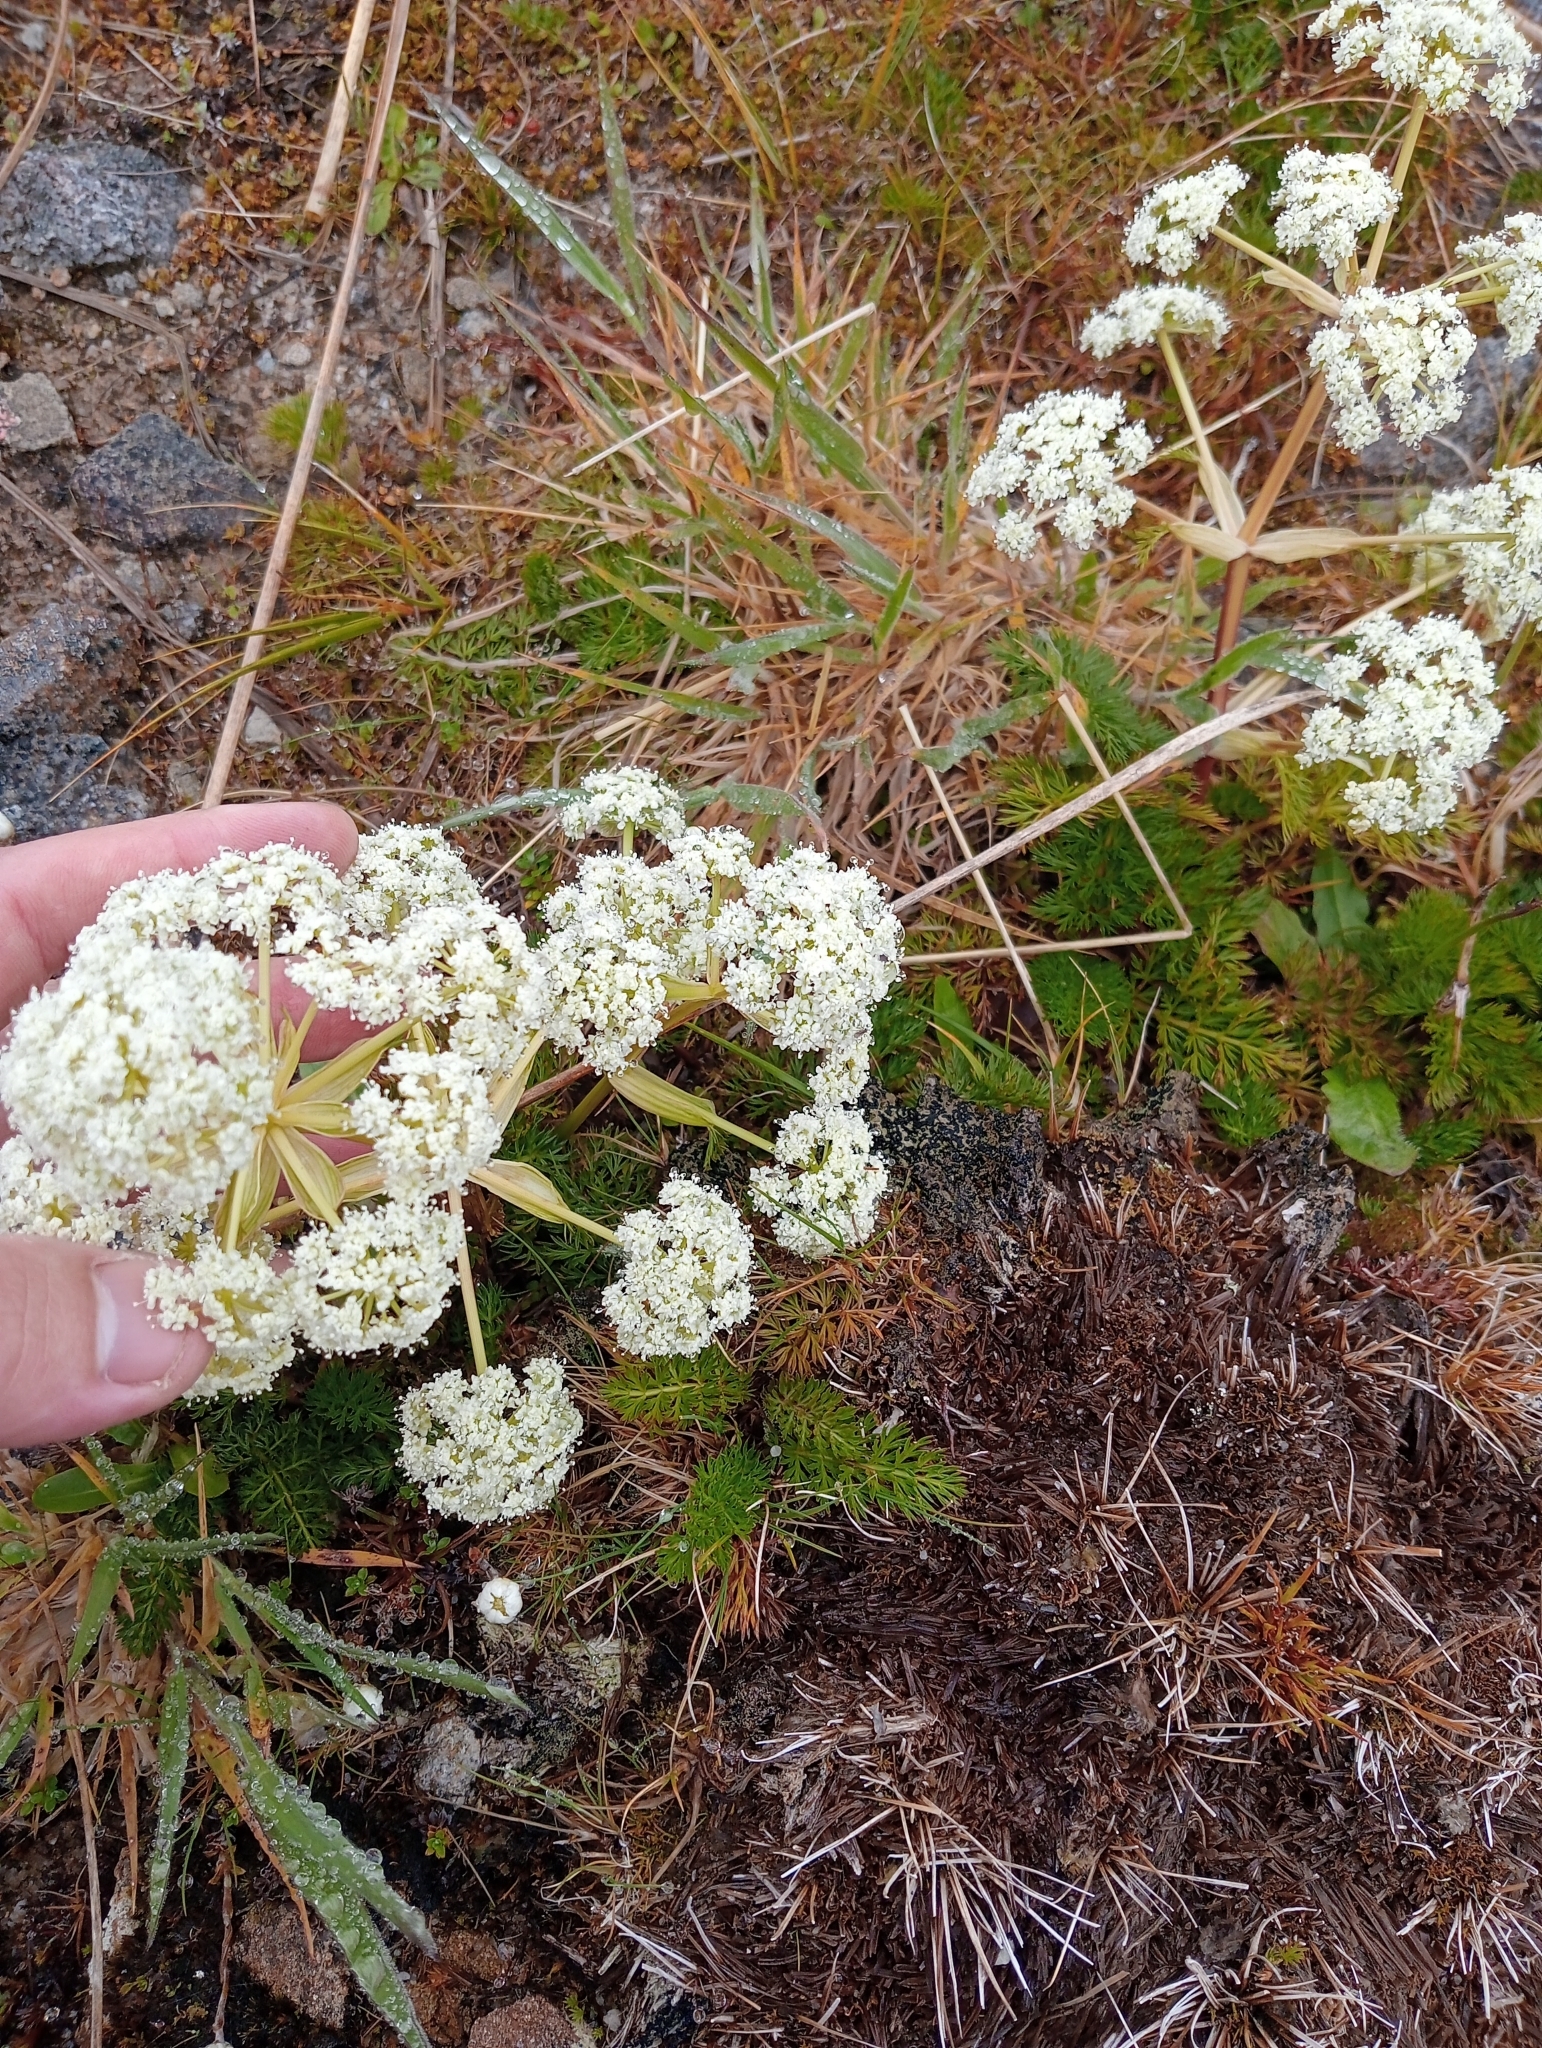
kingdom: Plantae
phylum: Tracheophyta
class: Magnoliopsida
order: Apiales
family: Apiaceae
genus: Anisotome
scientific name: Anisotome haastii
